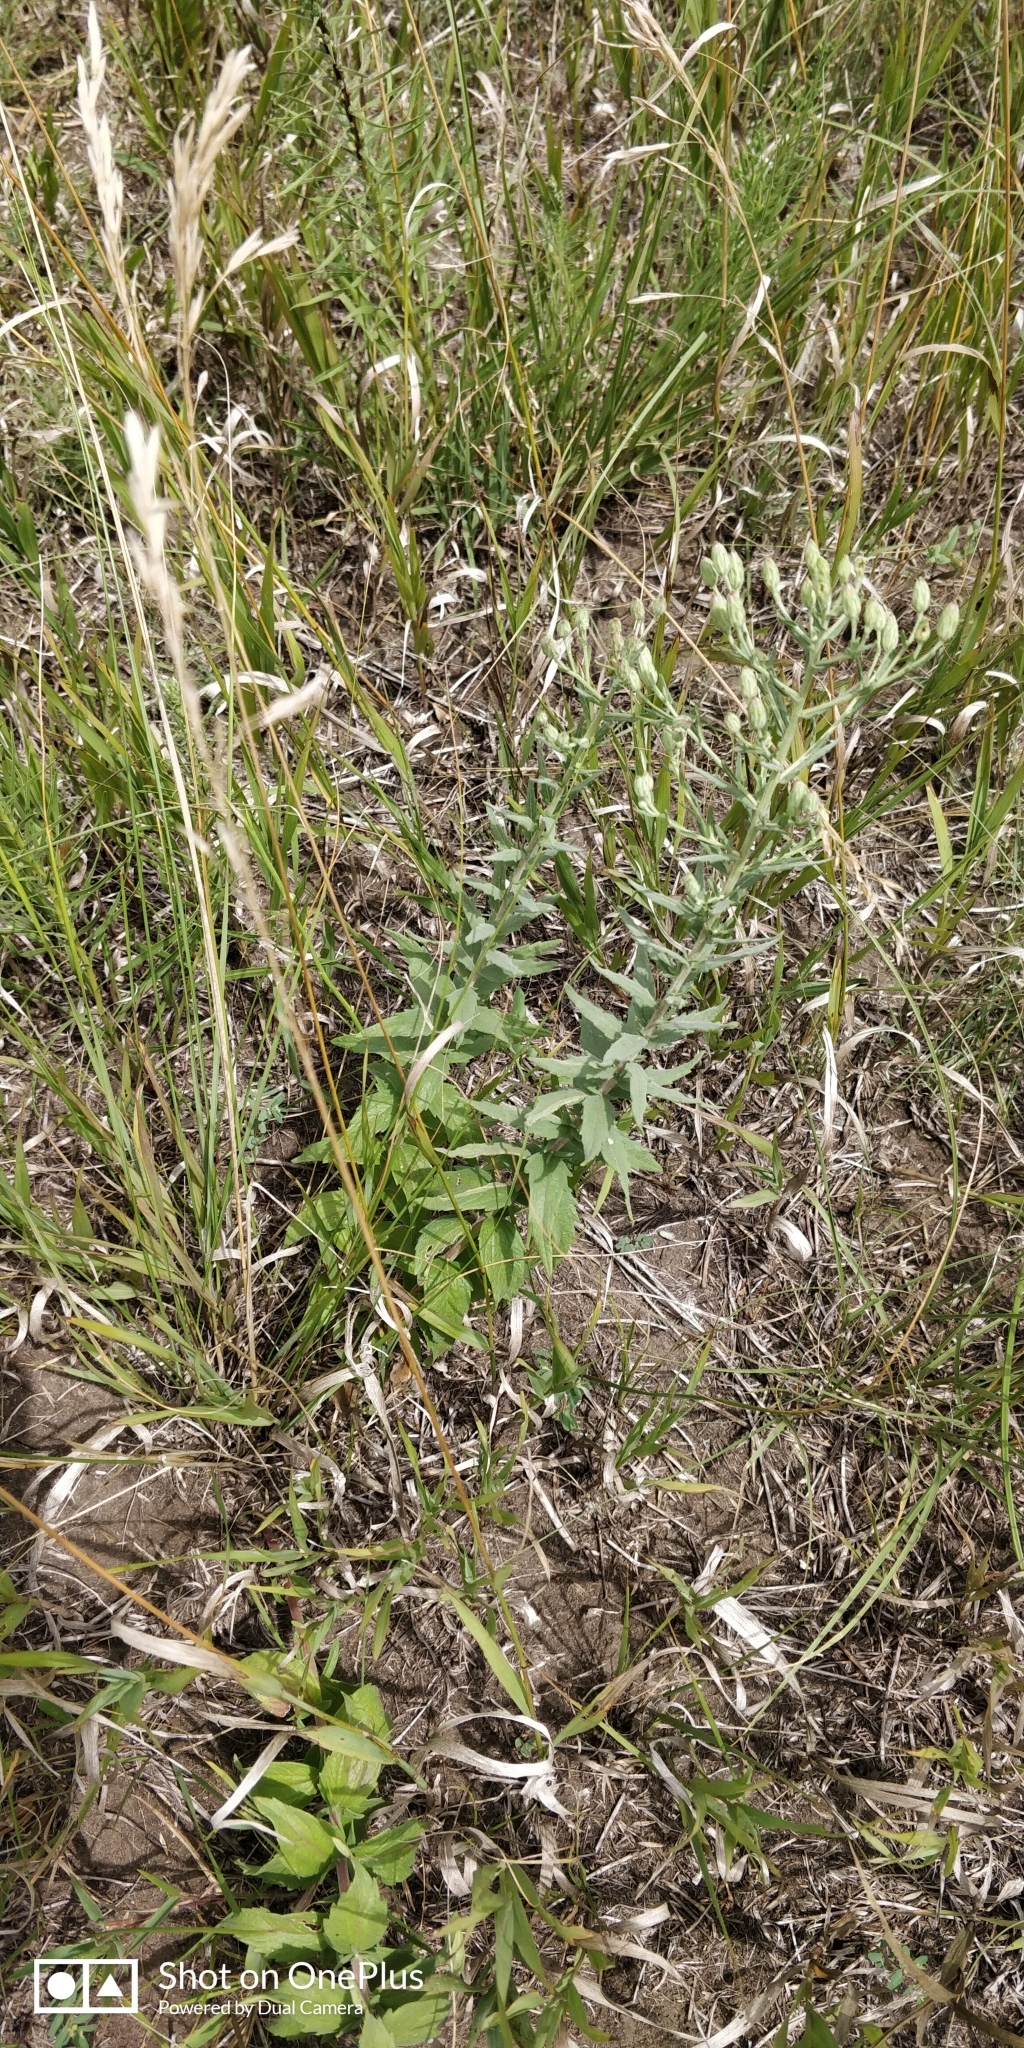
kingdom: Plantae
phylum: Tracheophyta
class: Magnoliopsida
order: Asterales
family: Asteraceae
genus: Brickellia
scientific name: Brickellia eupatorioides
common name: False boneset
